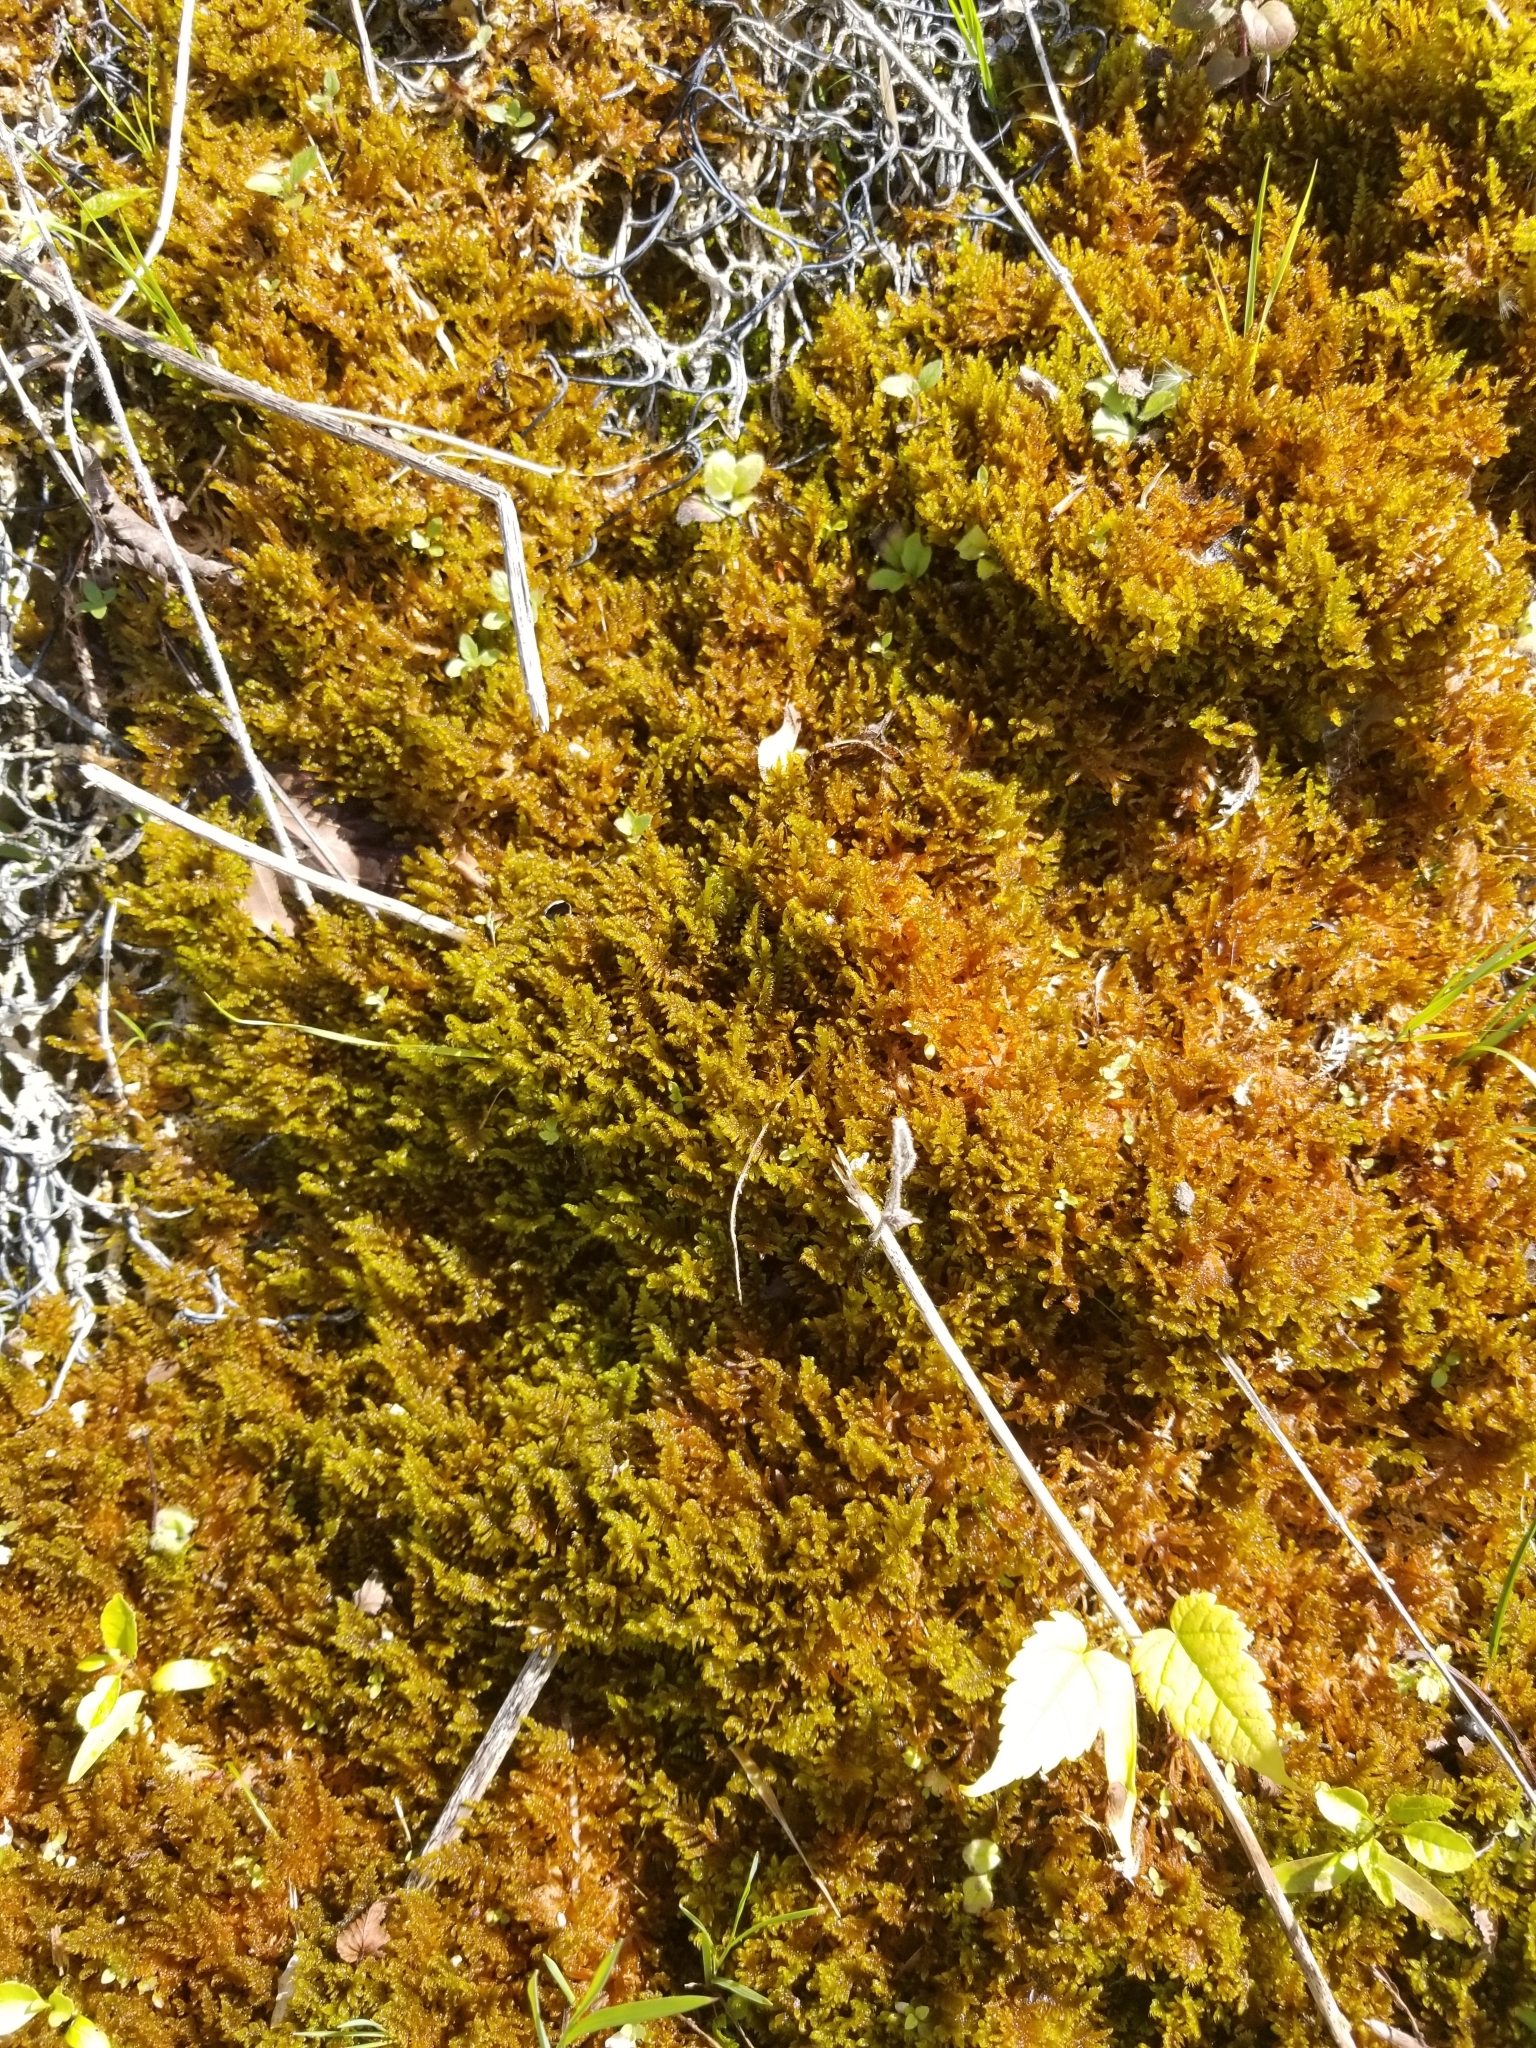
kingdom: Plantae
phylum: Bryophyta
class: Bryopsida
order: Hypnales
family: Amblystegiaceae
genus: Palustriella
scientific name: Palustriella commutata
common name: Curled hook-moss
